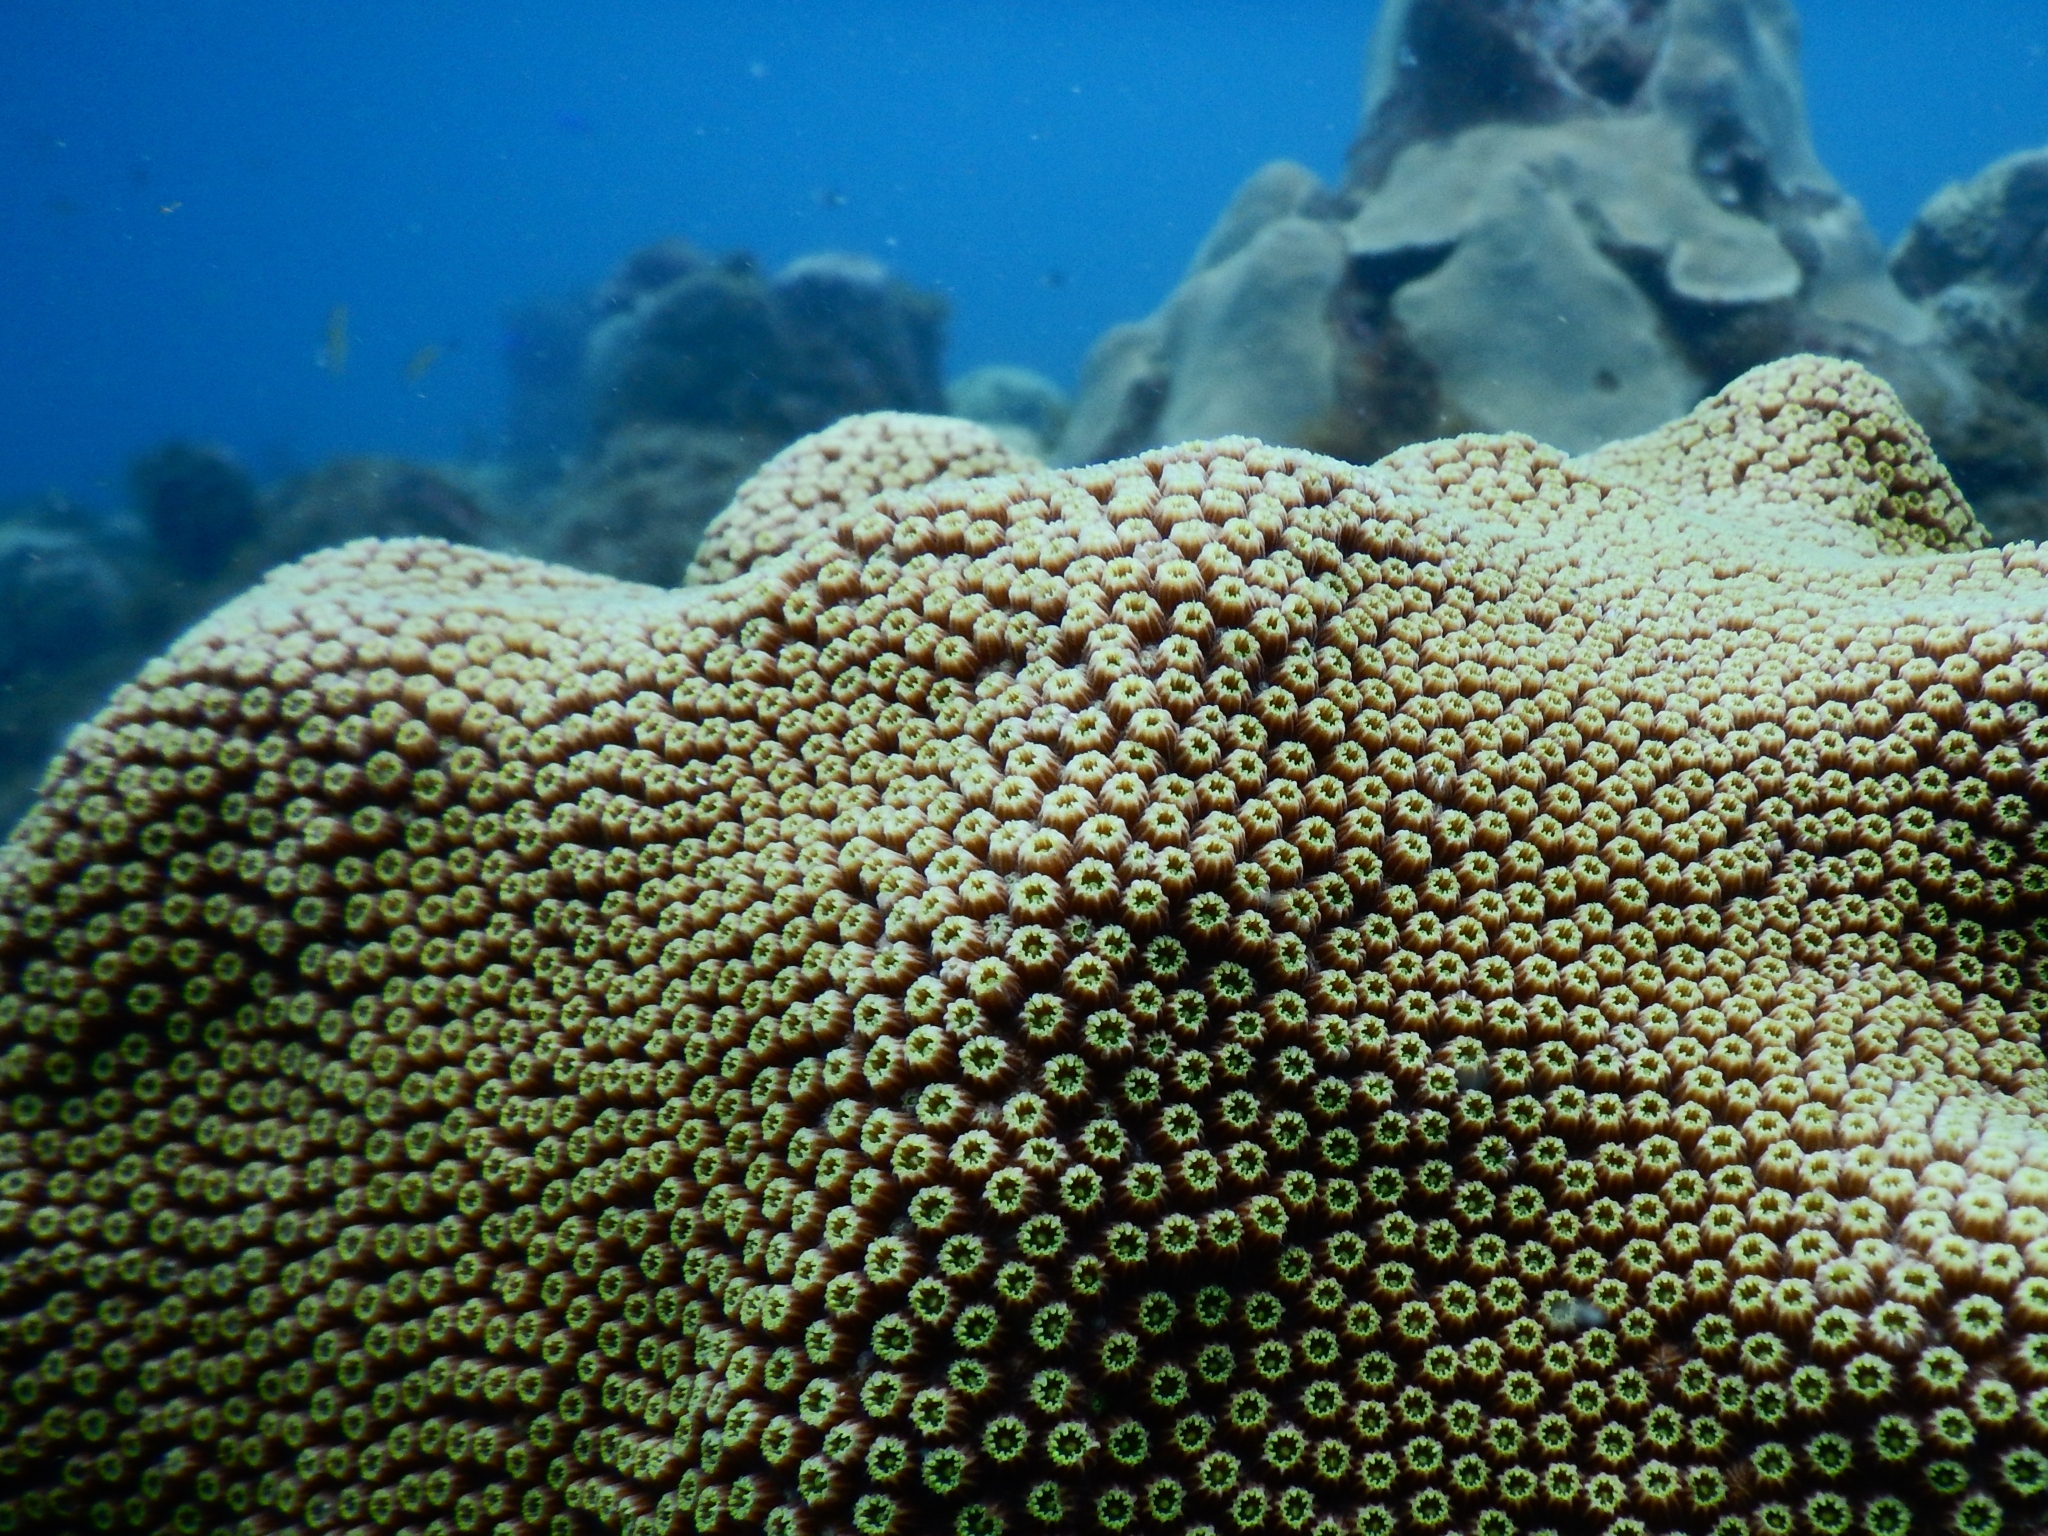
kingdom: Animalia
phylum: Cnidaria
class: Anthozoa
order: Scleractinia
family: Merulinidae
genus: Orbicella
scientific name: Orbicella faveolata
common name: Mountainous star coral
